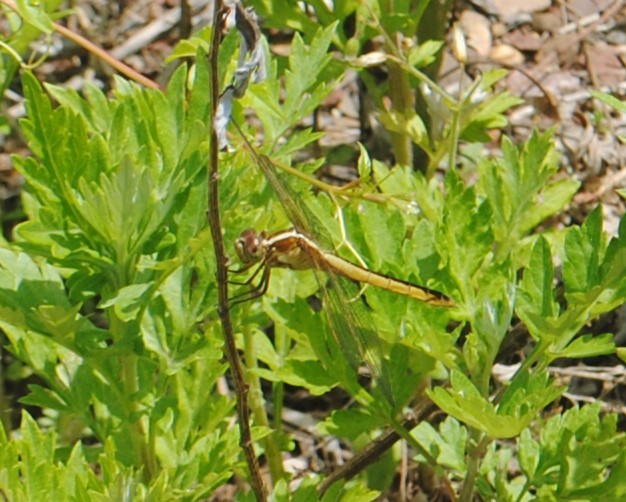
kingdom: Animalia
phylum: Arthropoda
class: Insecta
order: Odonata
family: Libellulidae
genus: Libellula
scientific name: Libellula needhami
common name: Needham's skimmer
